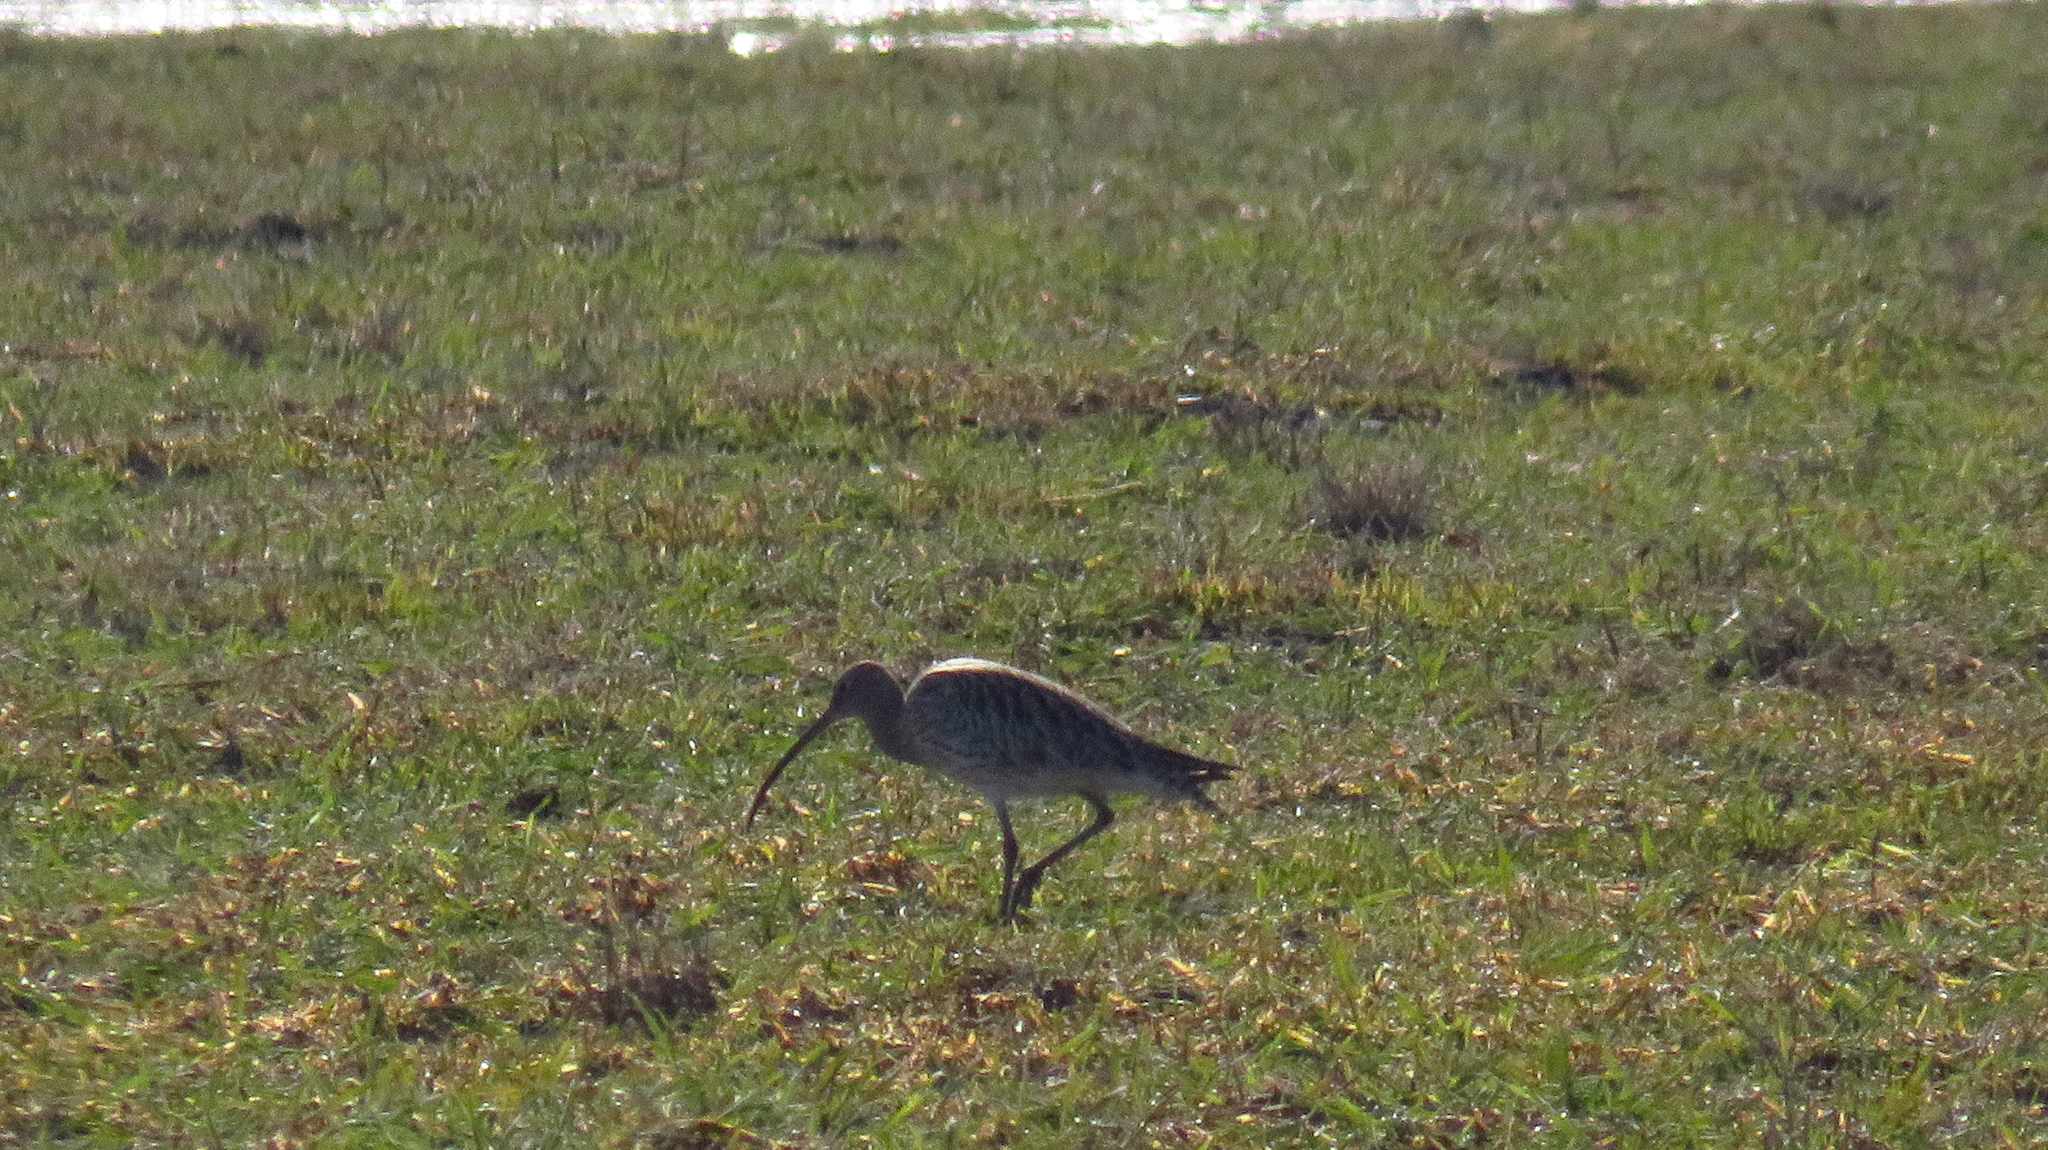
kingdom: Animalia
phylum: Chordata
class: Aves
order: Charadriiformes
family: Scolopacidae
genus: Numenius
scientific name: Numenius arquata
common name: Eurasian curlew
